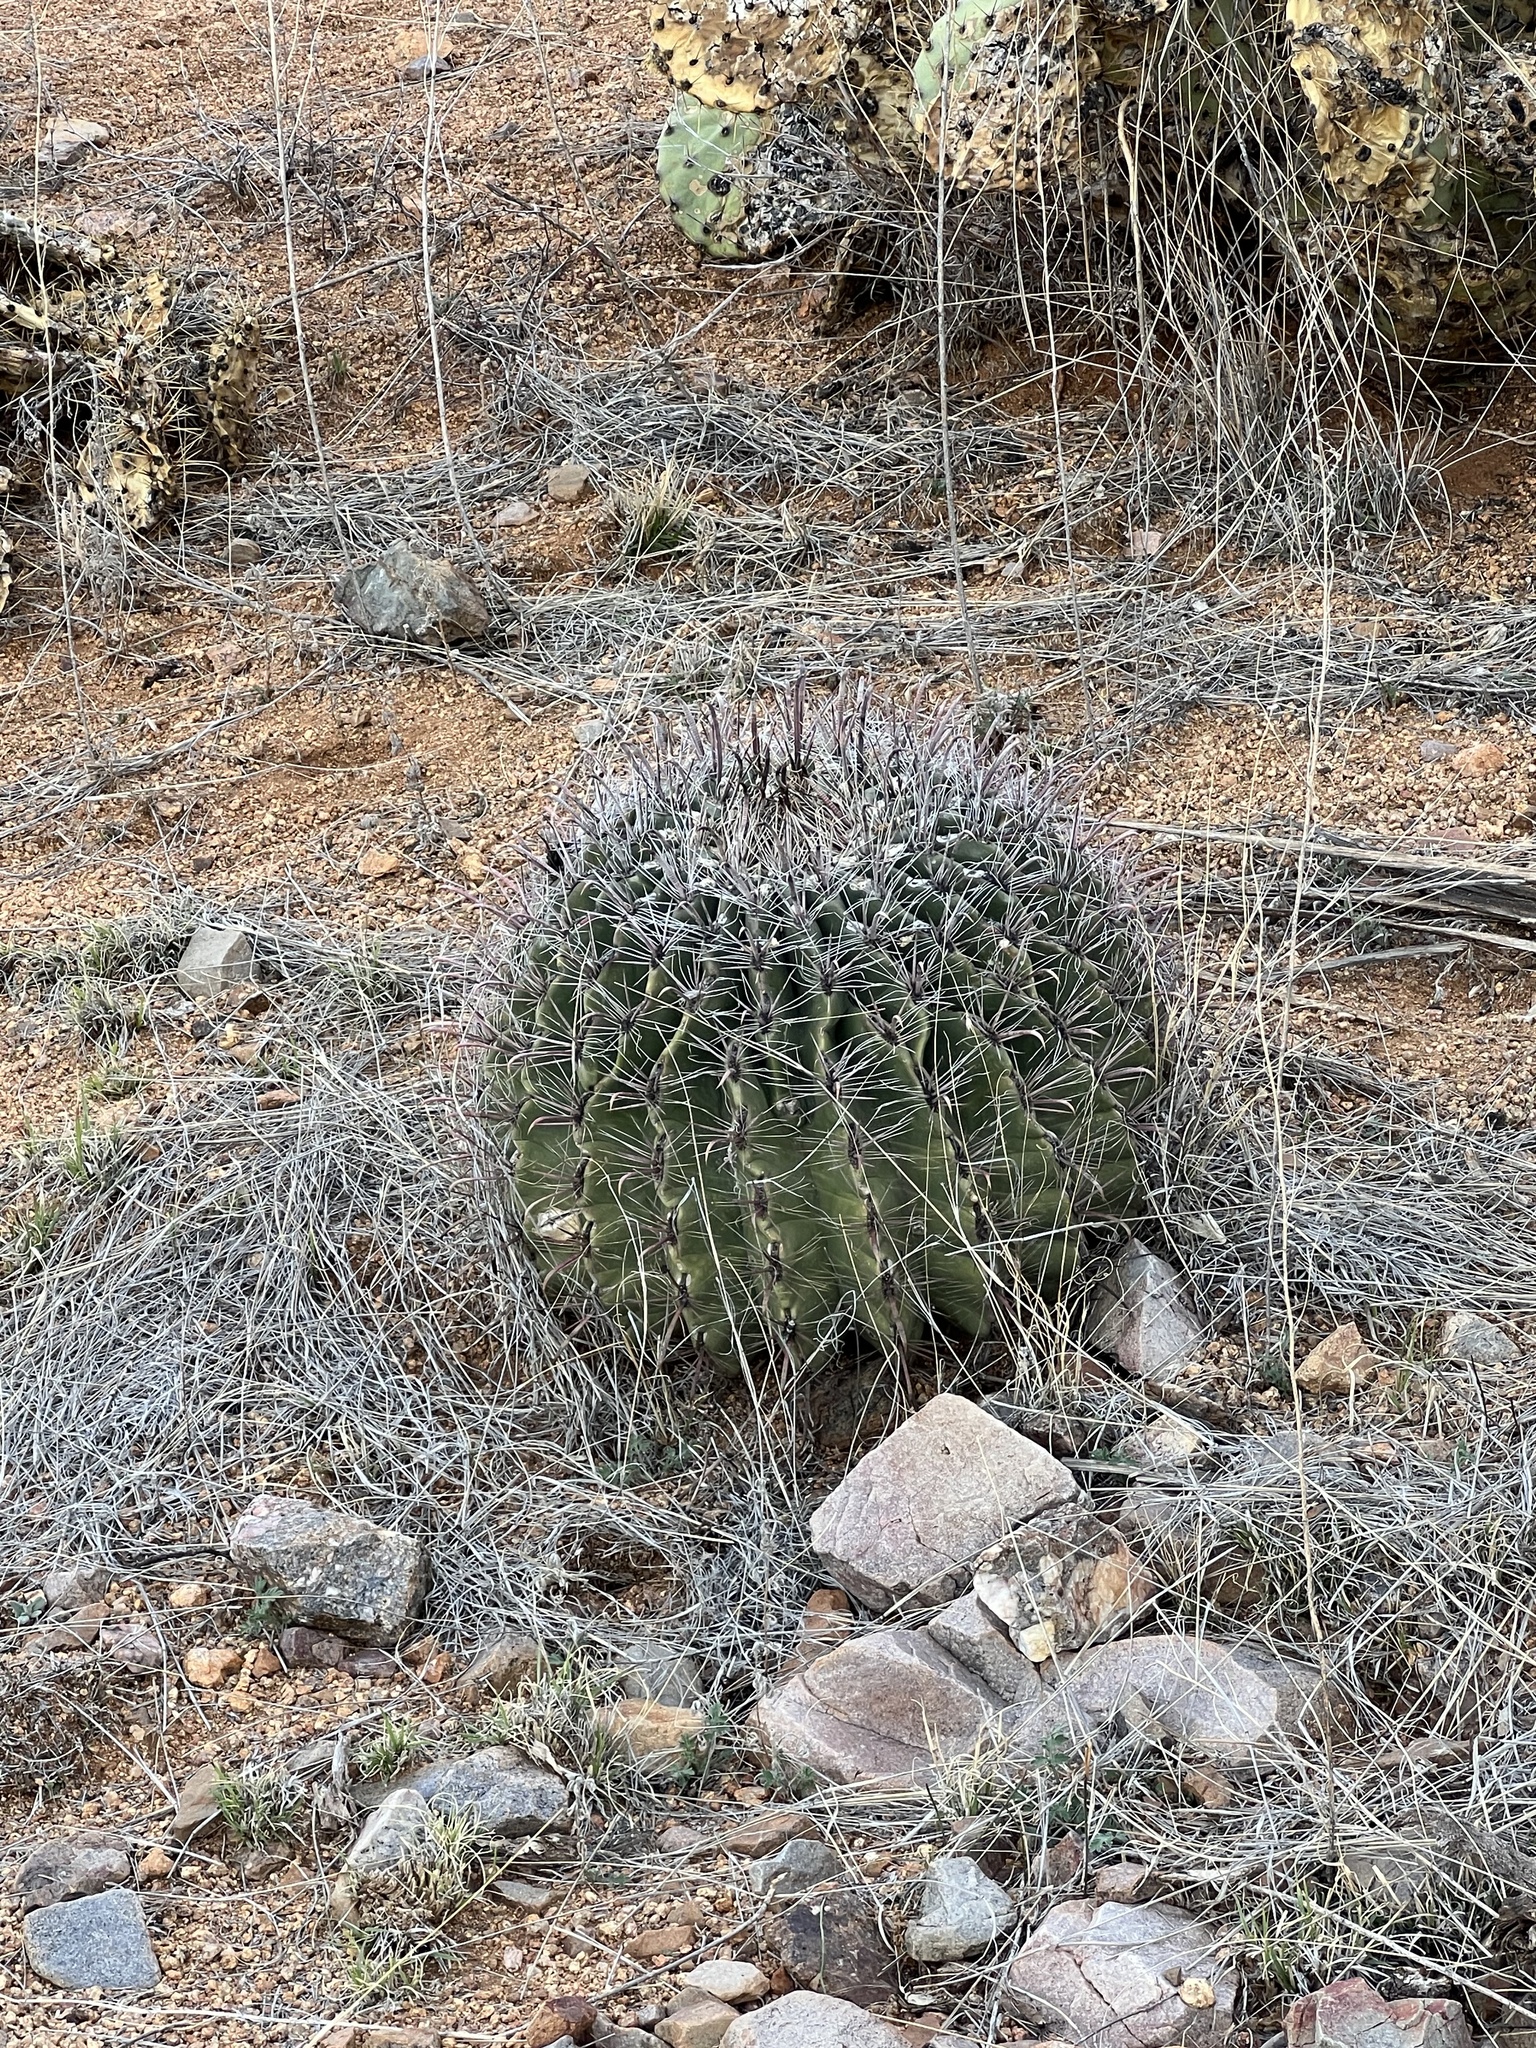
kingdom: Plantae
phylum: Tracheophyta
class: Magnoliopsida
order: Caryophyllales
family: Cactaceae
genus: Ferocactus
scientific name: Ferocactus wislizeni
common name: Candy barrel cactus
